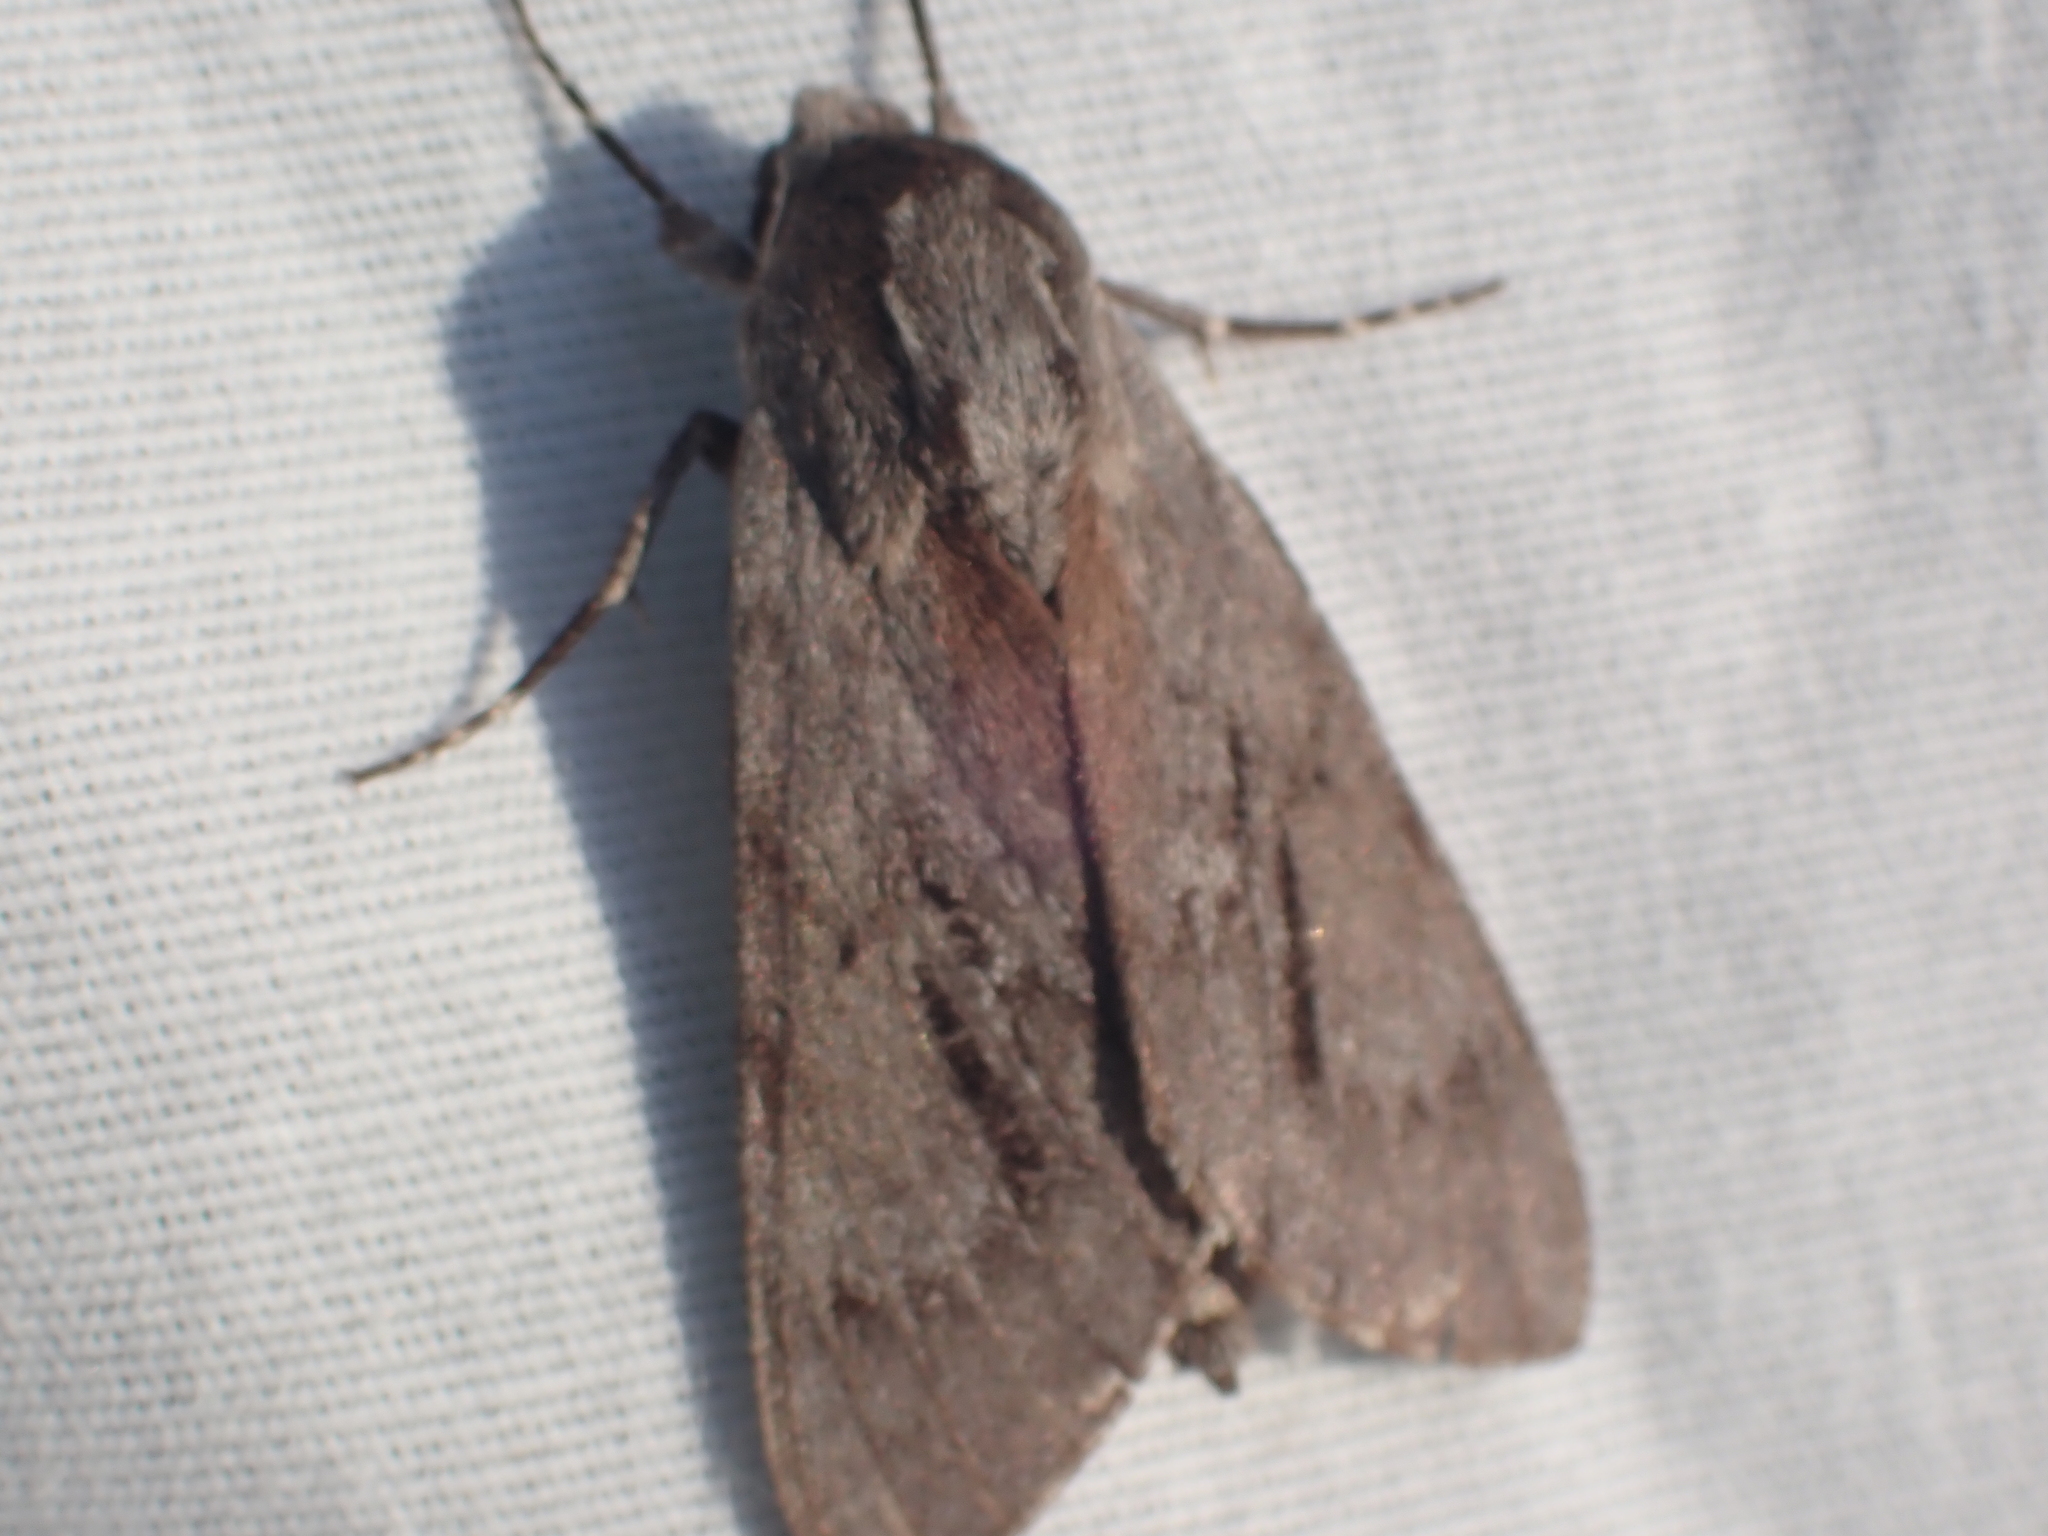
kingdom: Animalia
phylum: Arthropoda
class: Insecta
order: Lepidoptera
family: Sphingidae
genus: Lapara
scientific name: Lapara coniferarum
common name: Southern pine sphinx
